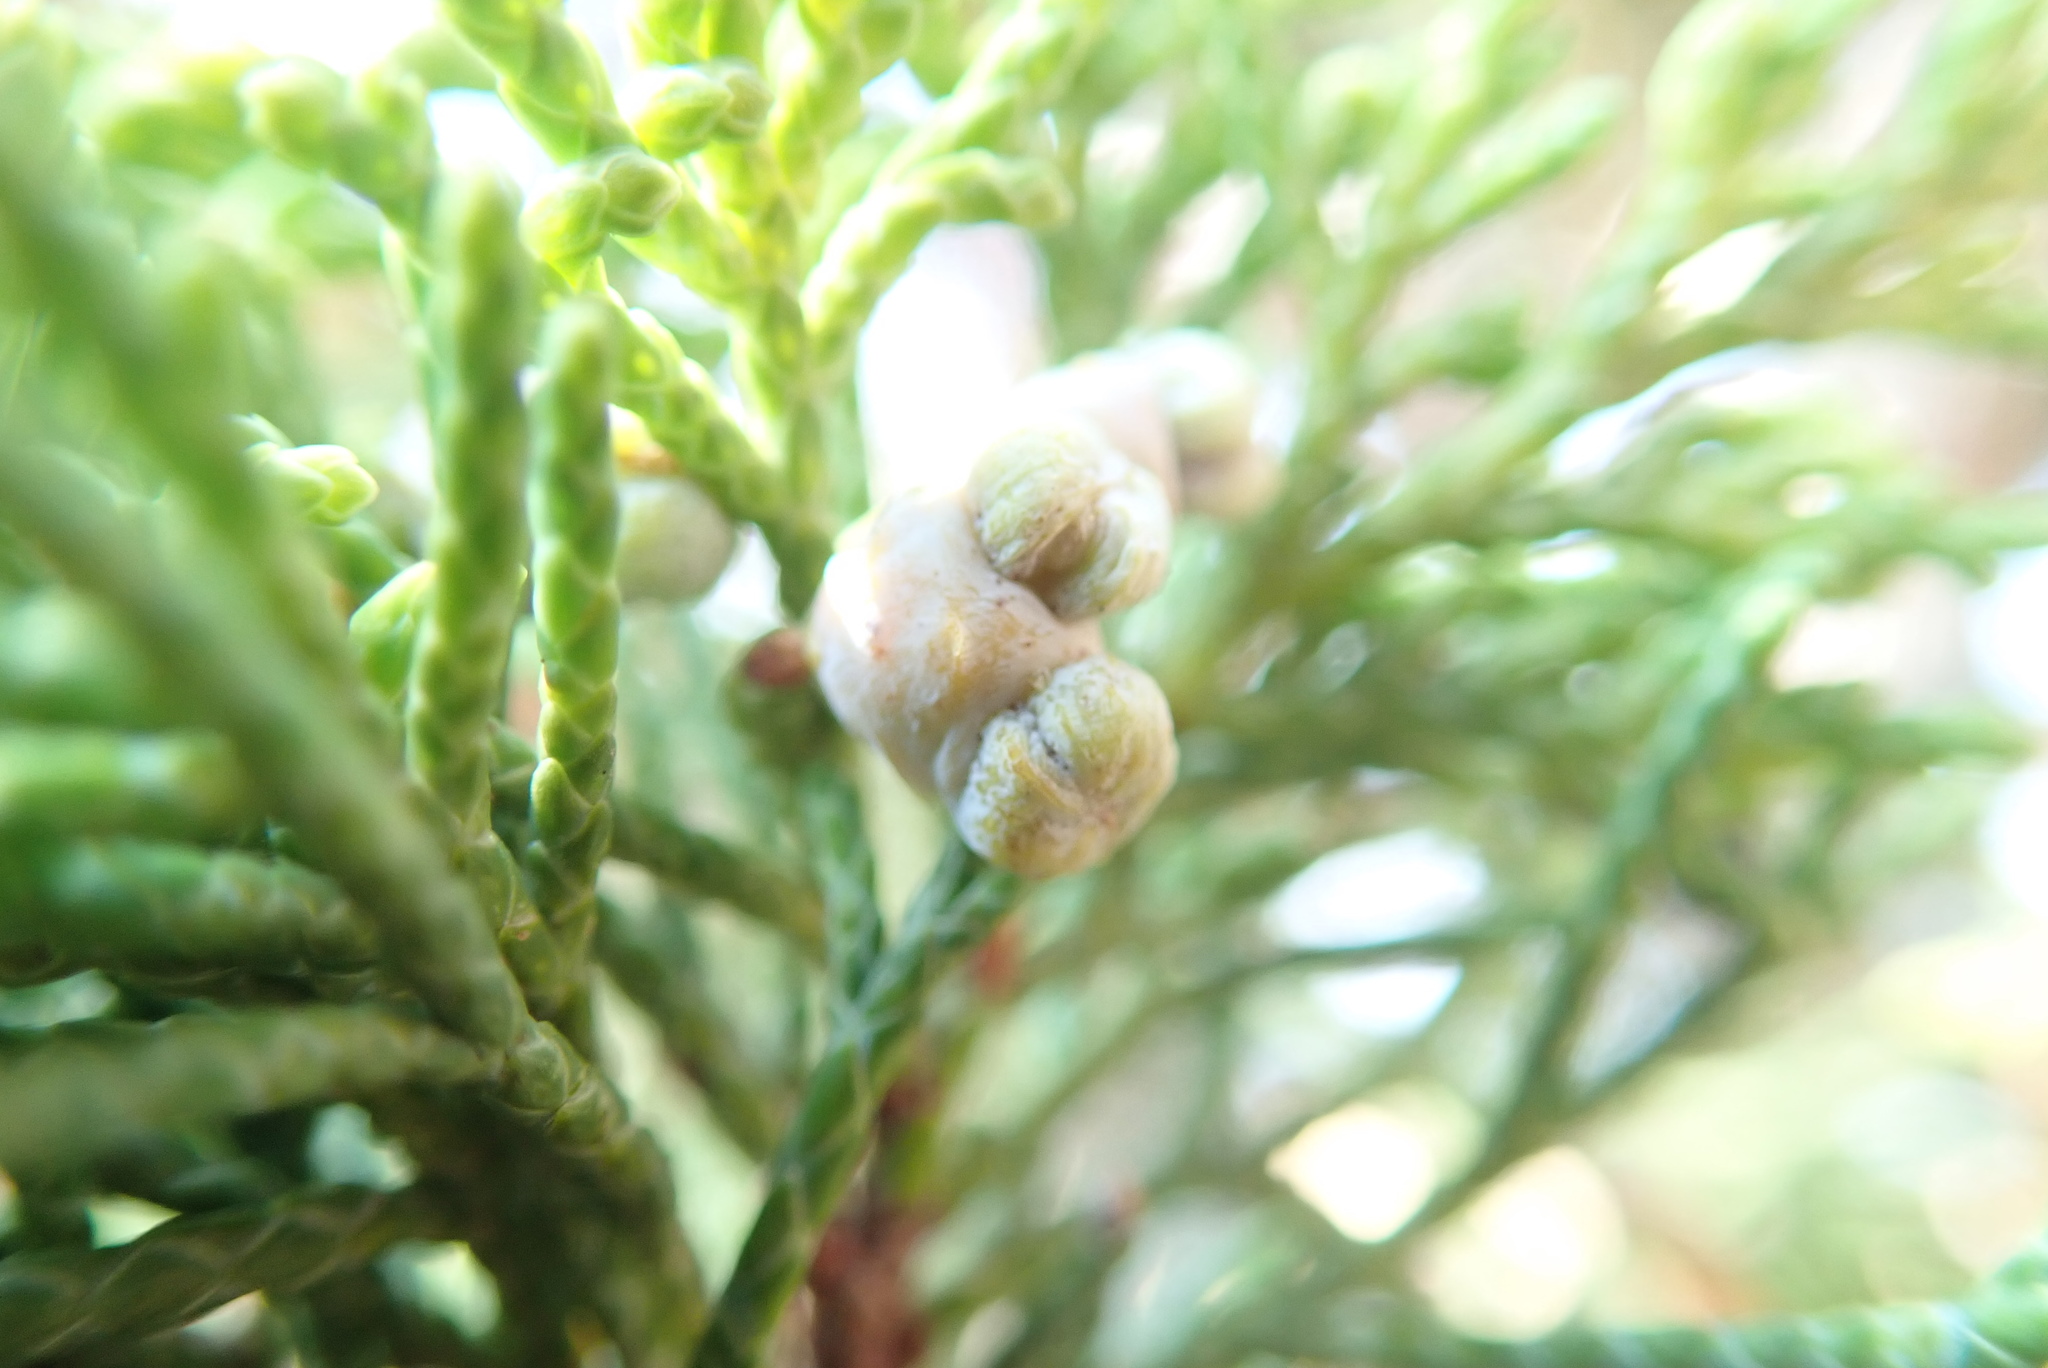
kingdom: Plantae
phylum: Tracheophyta
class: Pinopsida
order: Pinales
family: Cupressaceae
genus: Juniperus
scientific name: Juniperus scopulorum
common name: Rocky mountain juniper
